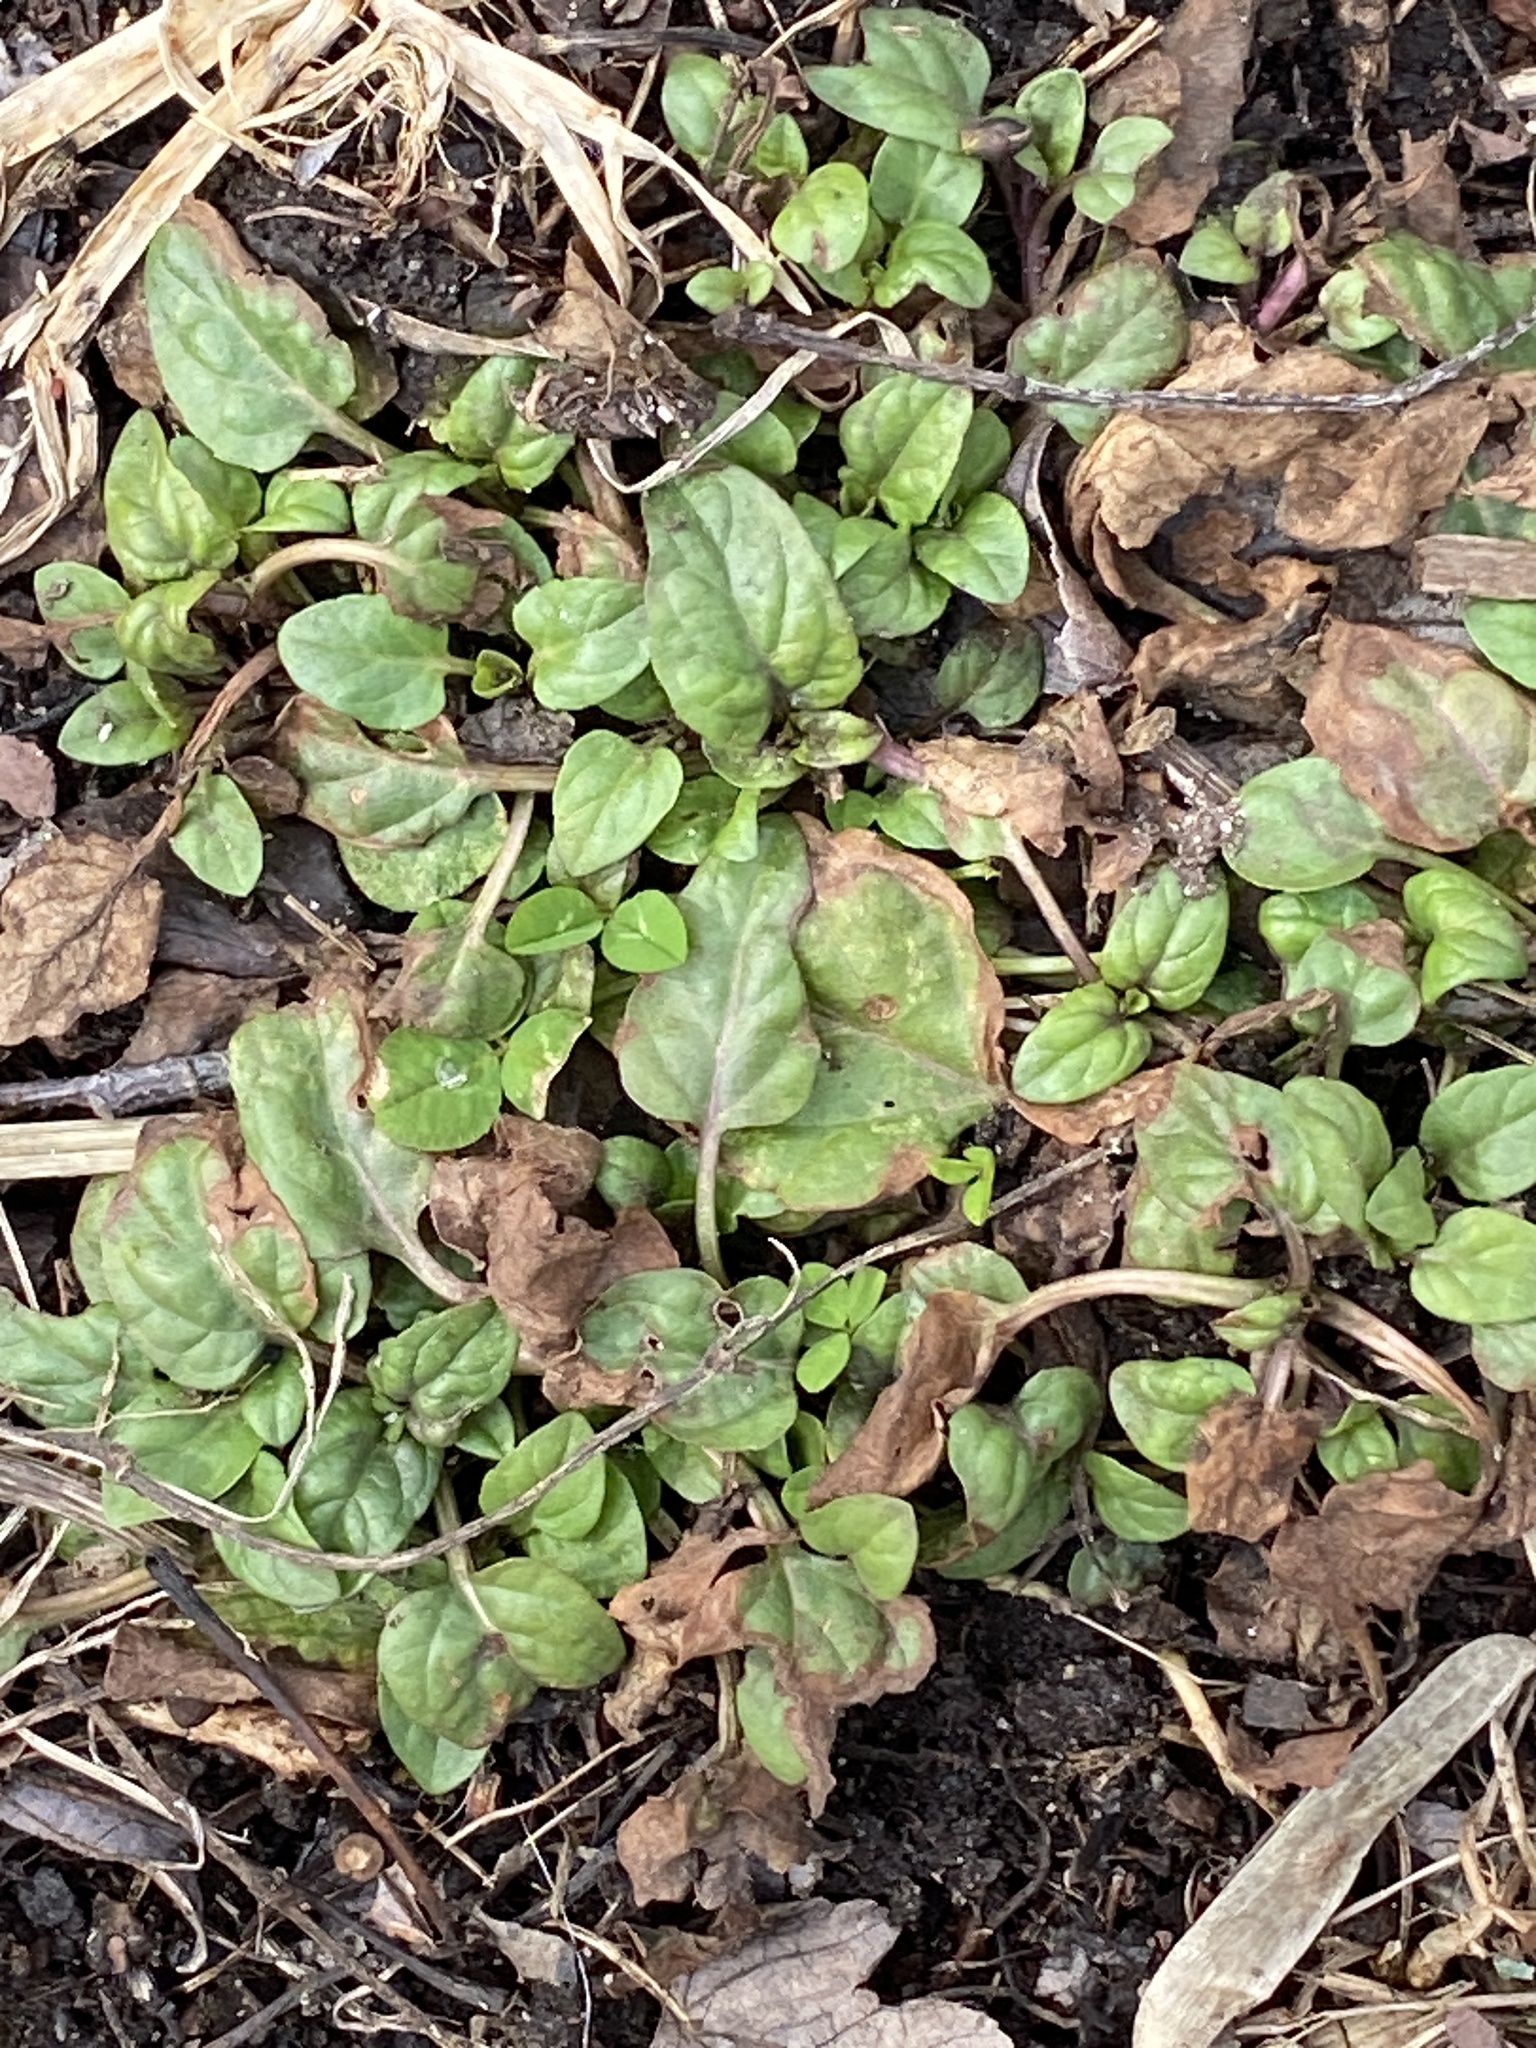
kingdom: Plantae
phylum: Tracheophyta
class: Magnoliopsida
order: Lamiales
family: Lamiaceae
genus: Prunella
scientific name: Prunella vulgaris
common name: Heal-all
